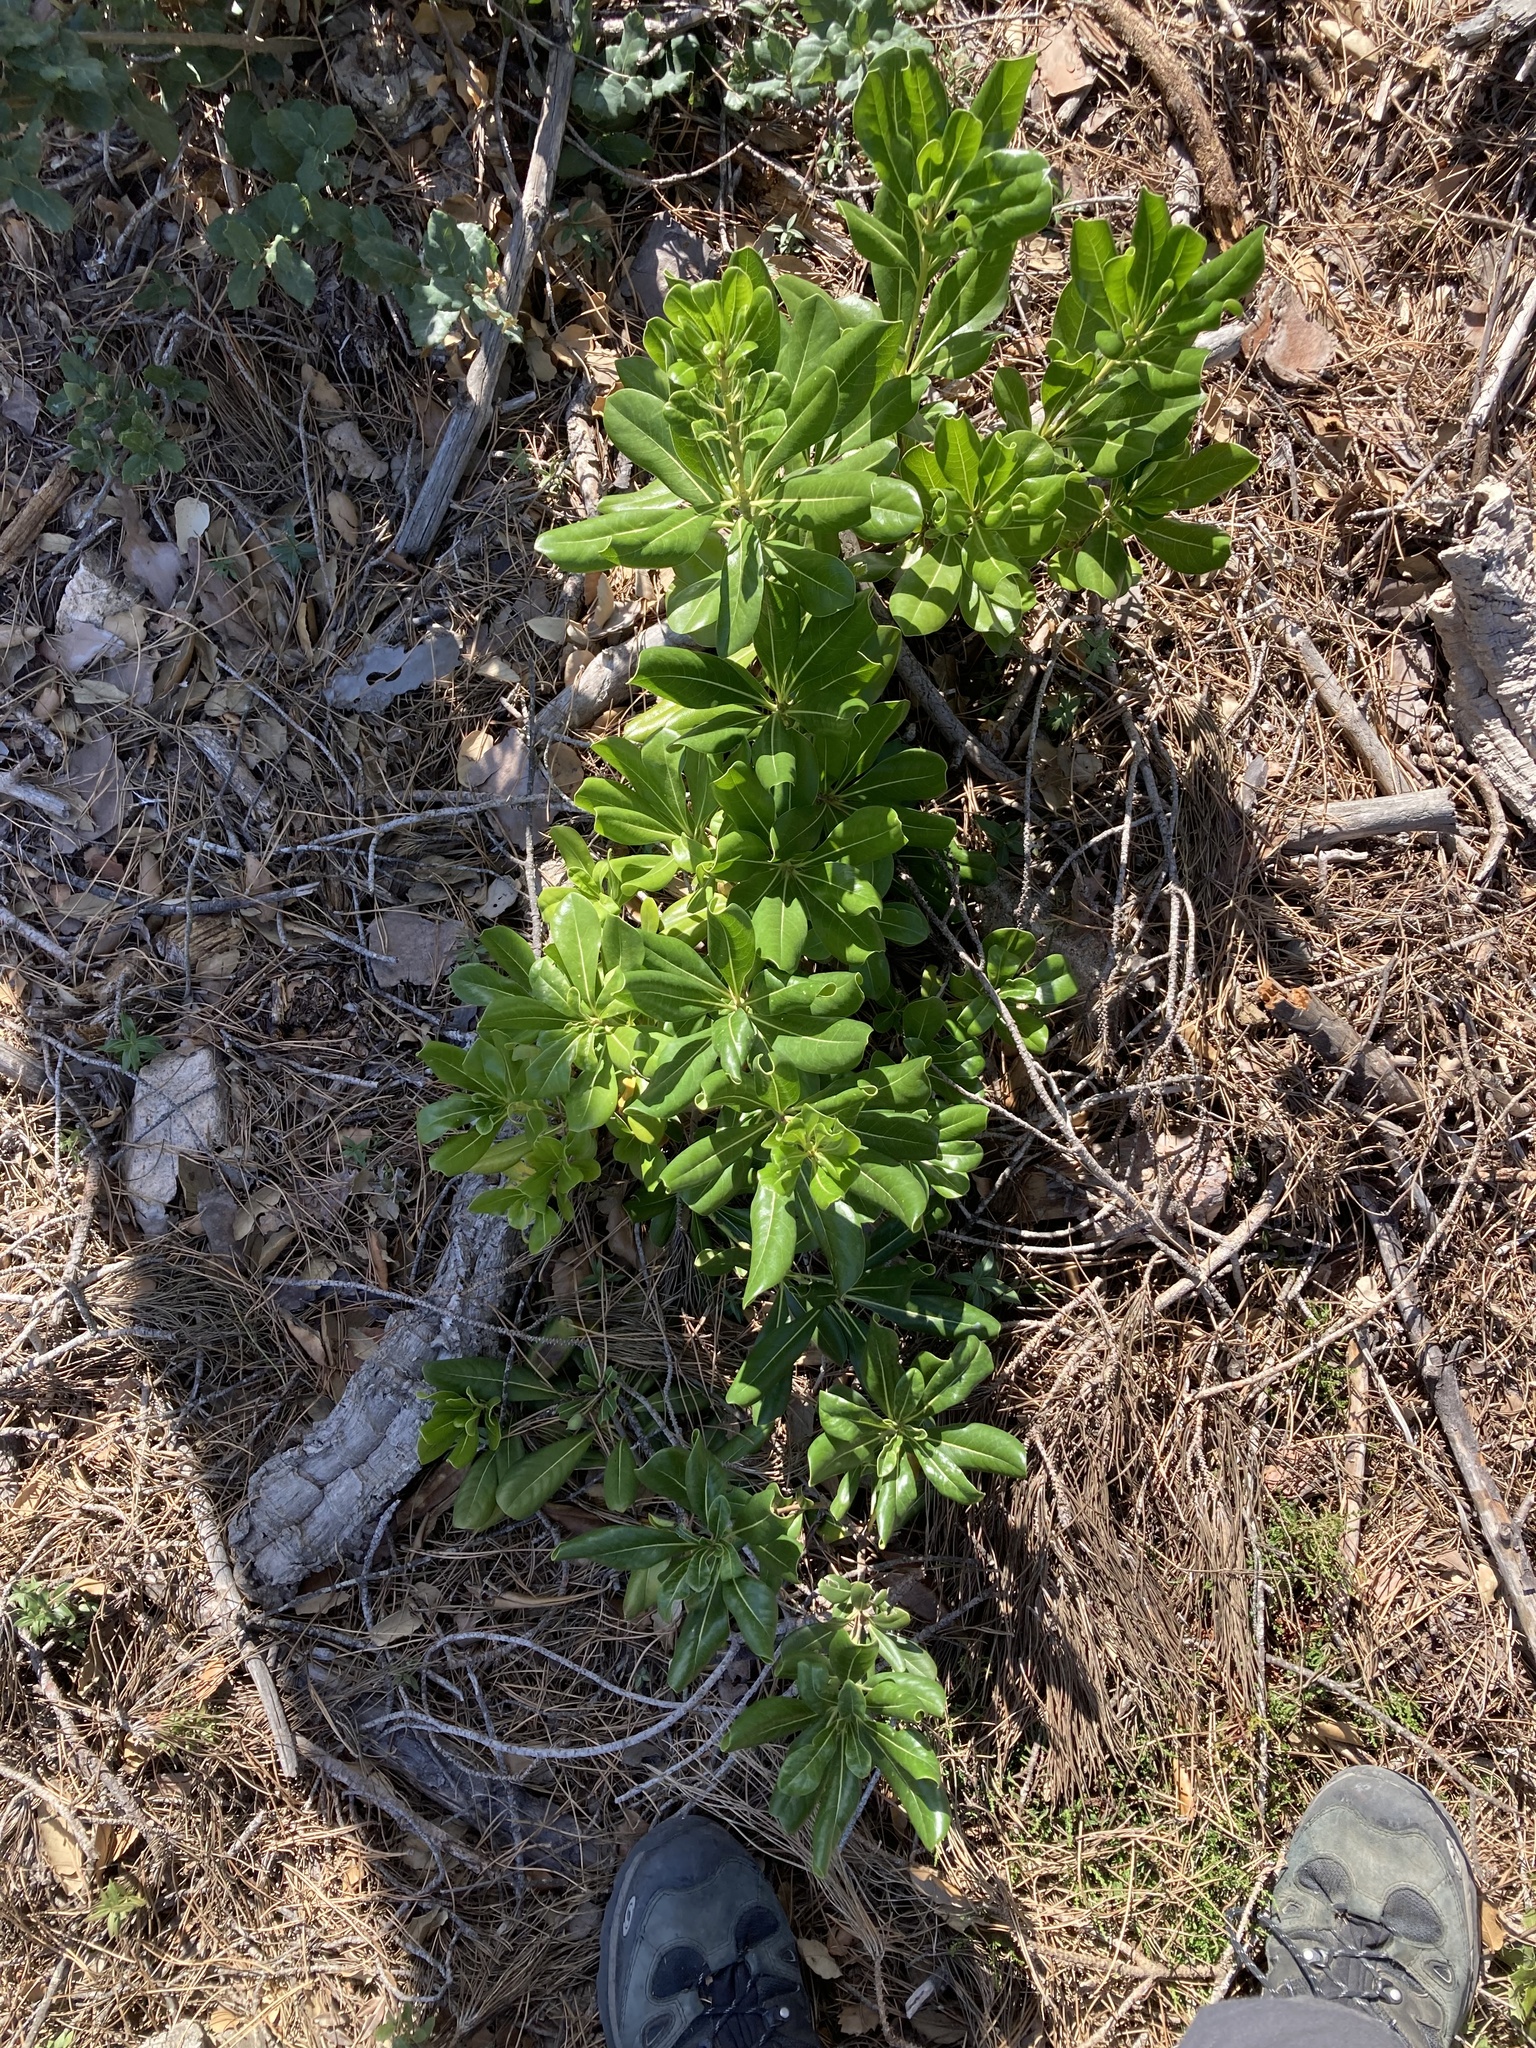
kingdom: Plantae
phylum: Tracheophyta
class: Magnoliopsida
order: Apiales
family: Pittosporaceae
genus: Pittosporum
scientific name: Pittosporum tobira
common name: Japanese cheesewood
